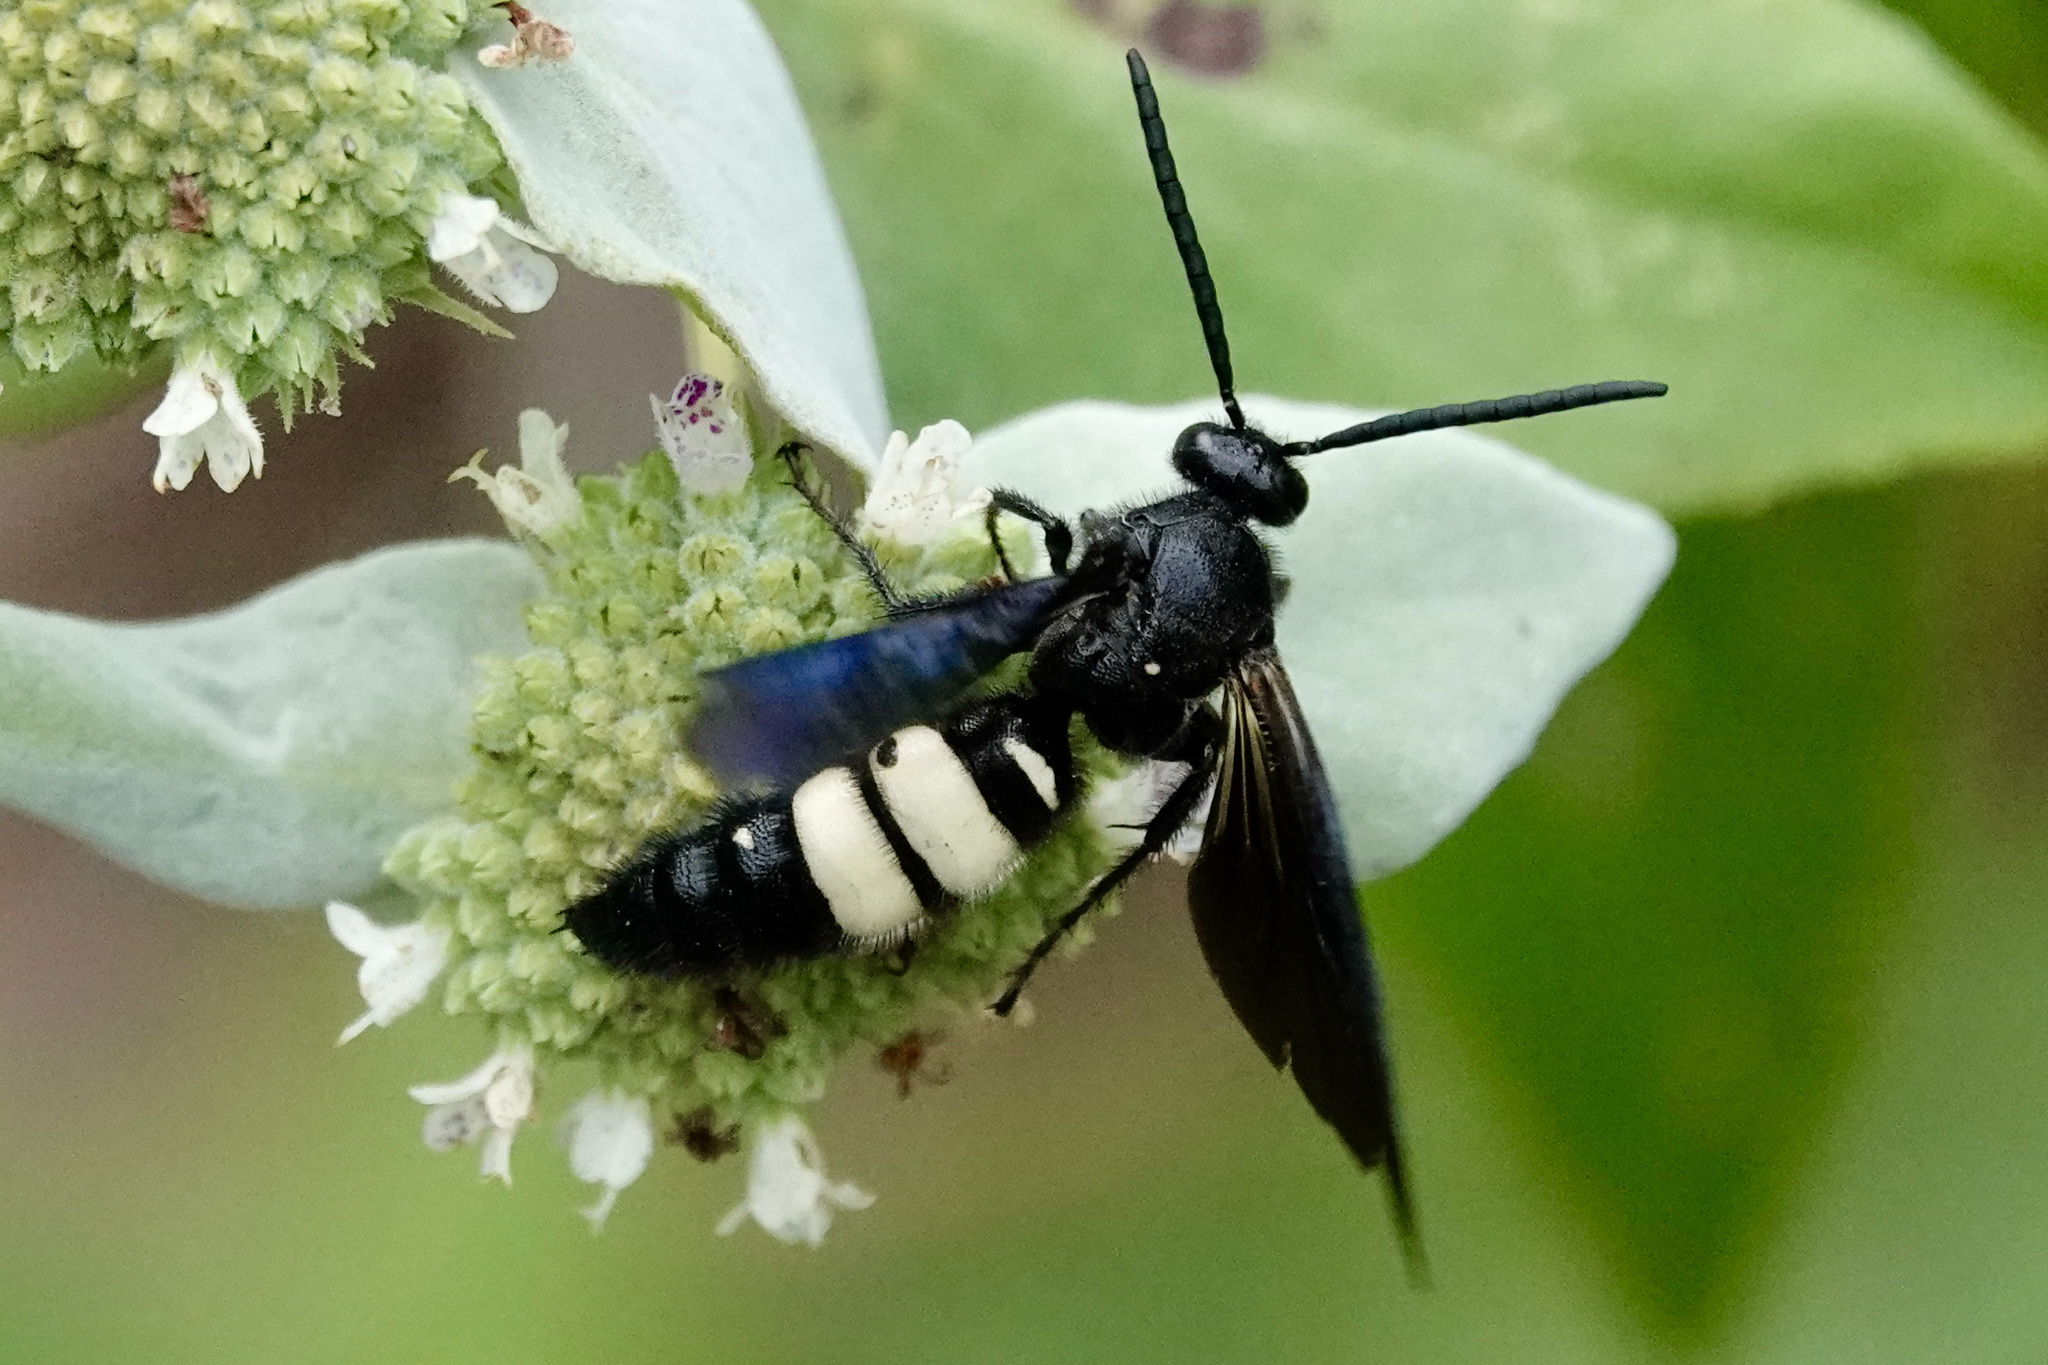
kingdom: Animalia
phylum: Arthropoda
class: Insecta
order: Hymenoptera
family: Scoliidae
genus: Scolia
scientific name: Scolia bicincta
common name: Double-banded scoliid wasp
